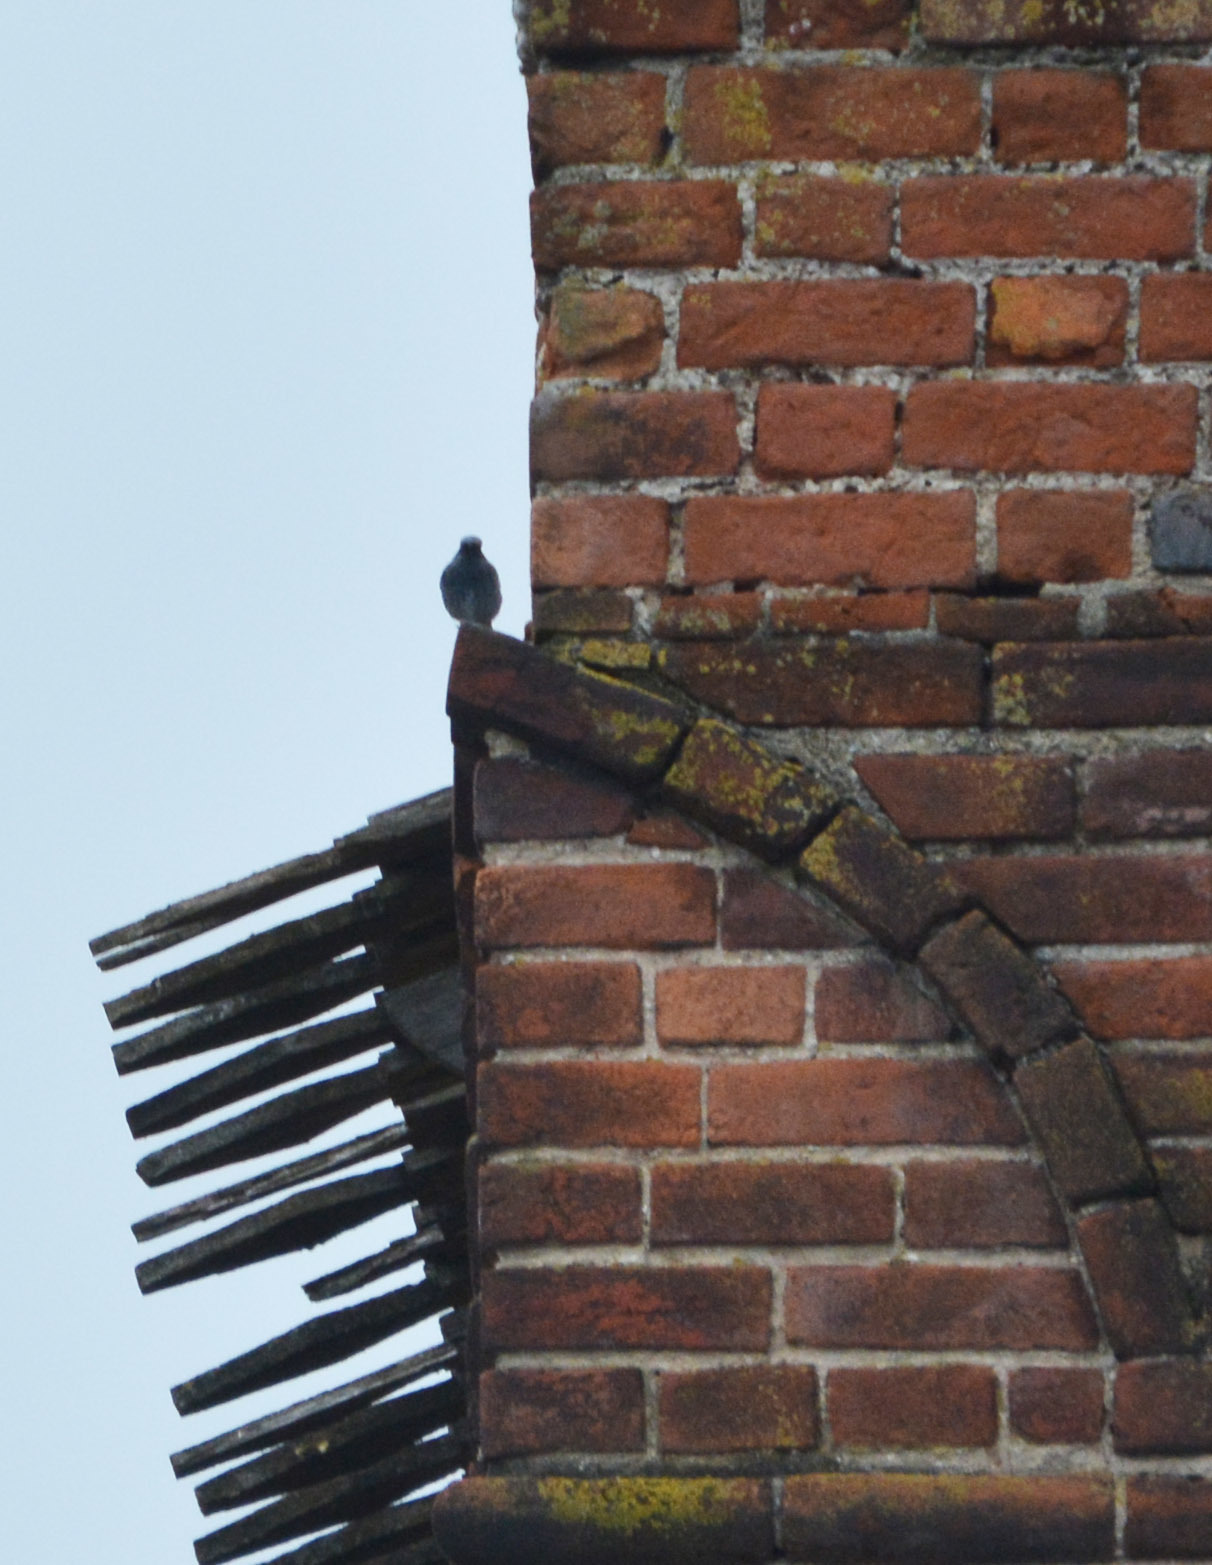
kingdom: Animalia
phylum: Chordata
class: Aves
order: Passeriformes
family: Muscicapidae
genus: Phoenicurus
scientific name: Phoenicurus ochruros
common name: Black redstart
